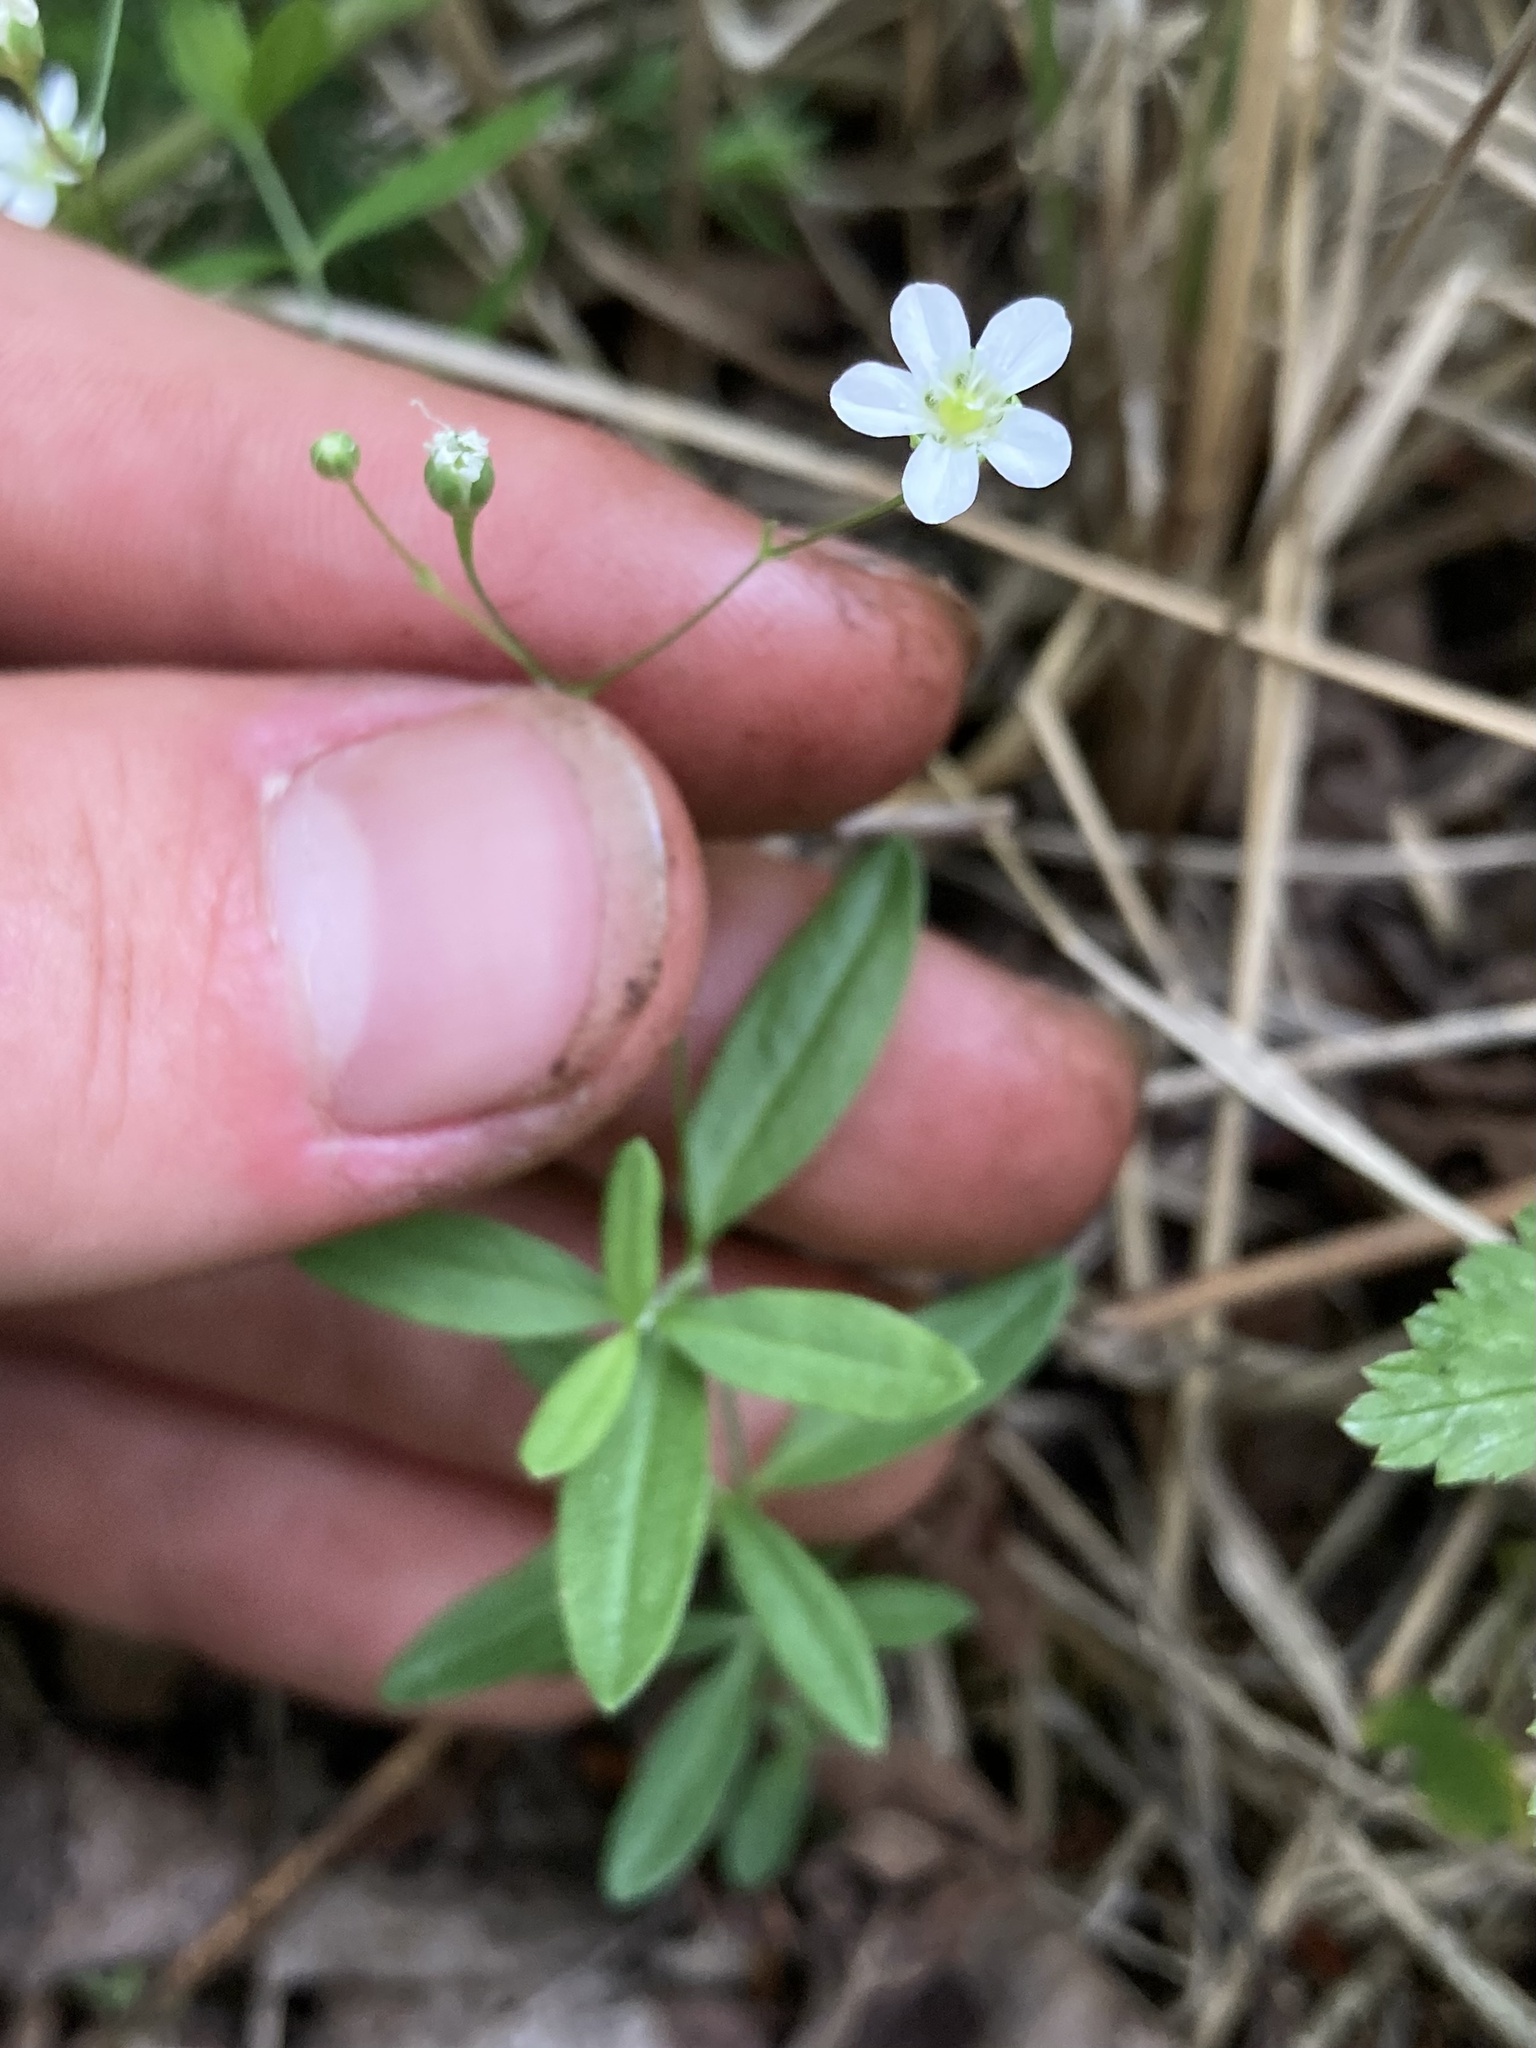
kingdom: Plantae
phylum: Tracheophyta
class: Magnoliopsida
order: Caryophyllales
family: Caryophyllaceae
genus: Moehringia
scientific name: Moehringia lateriflora
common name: Blunt-leaved sandwort
